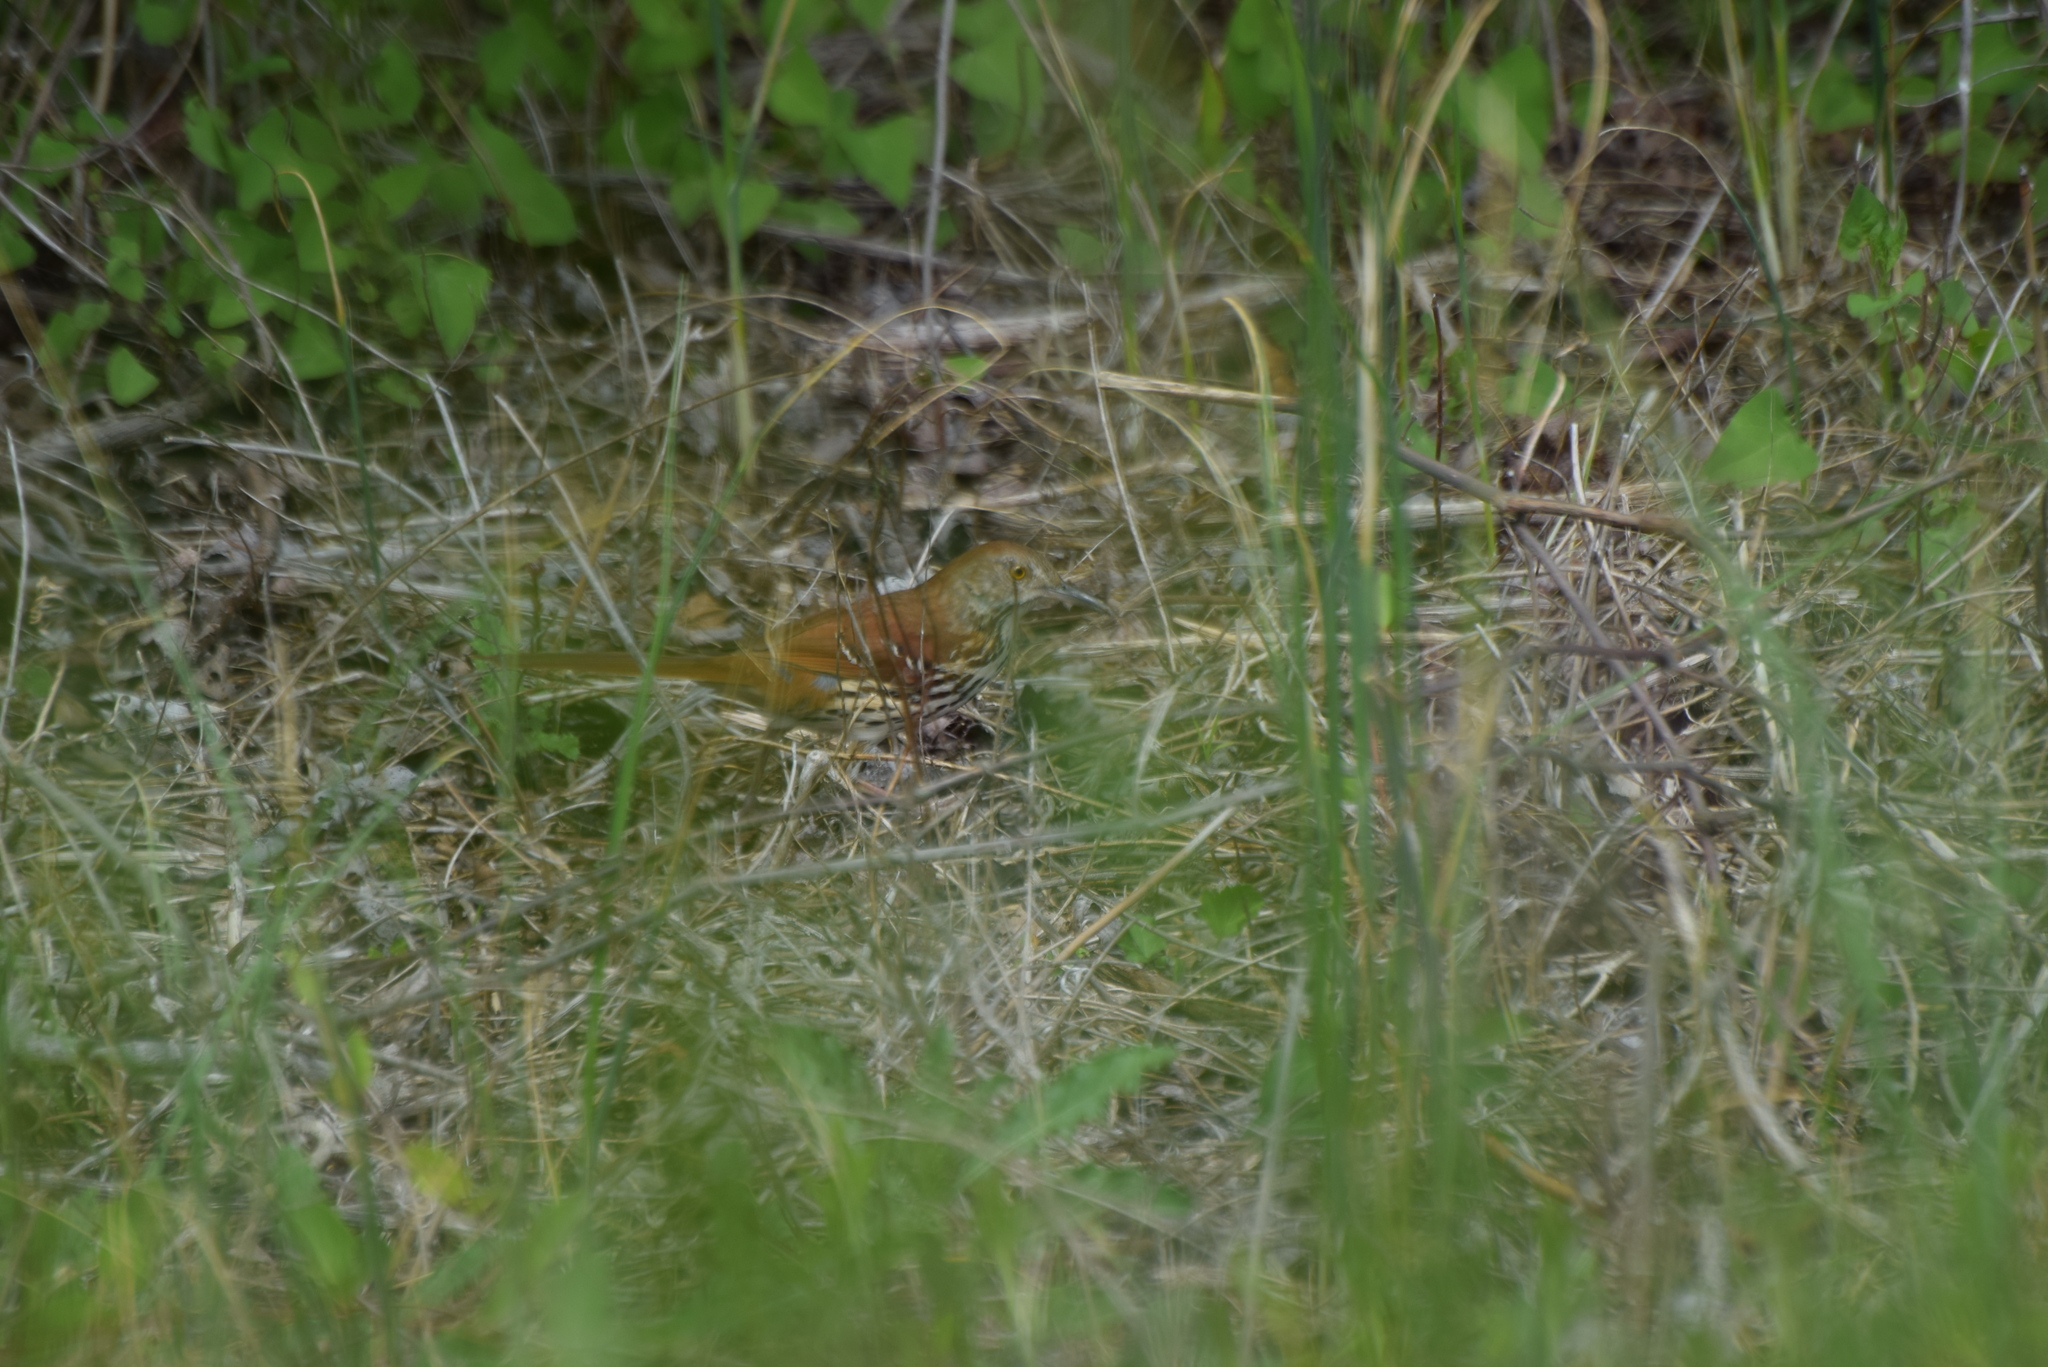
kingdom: Animalia
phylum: Chordata
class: Aves
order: Passeriformes
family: Mimidae
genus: Toxostoma
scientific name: Toxostoma rufum
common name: Brown thrasher
